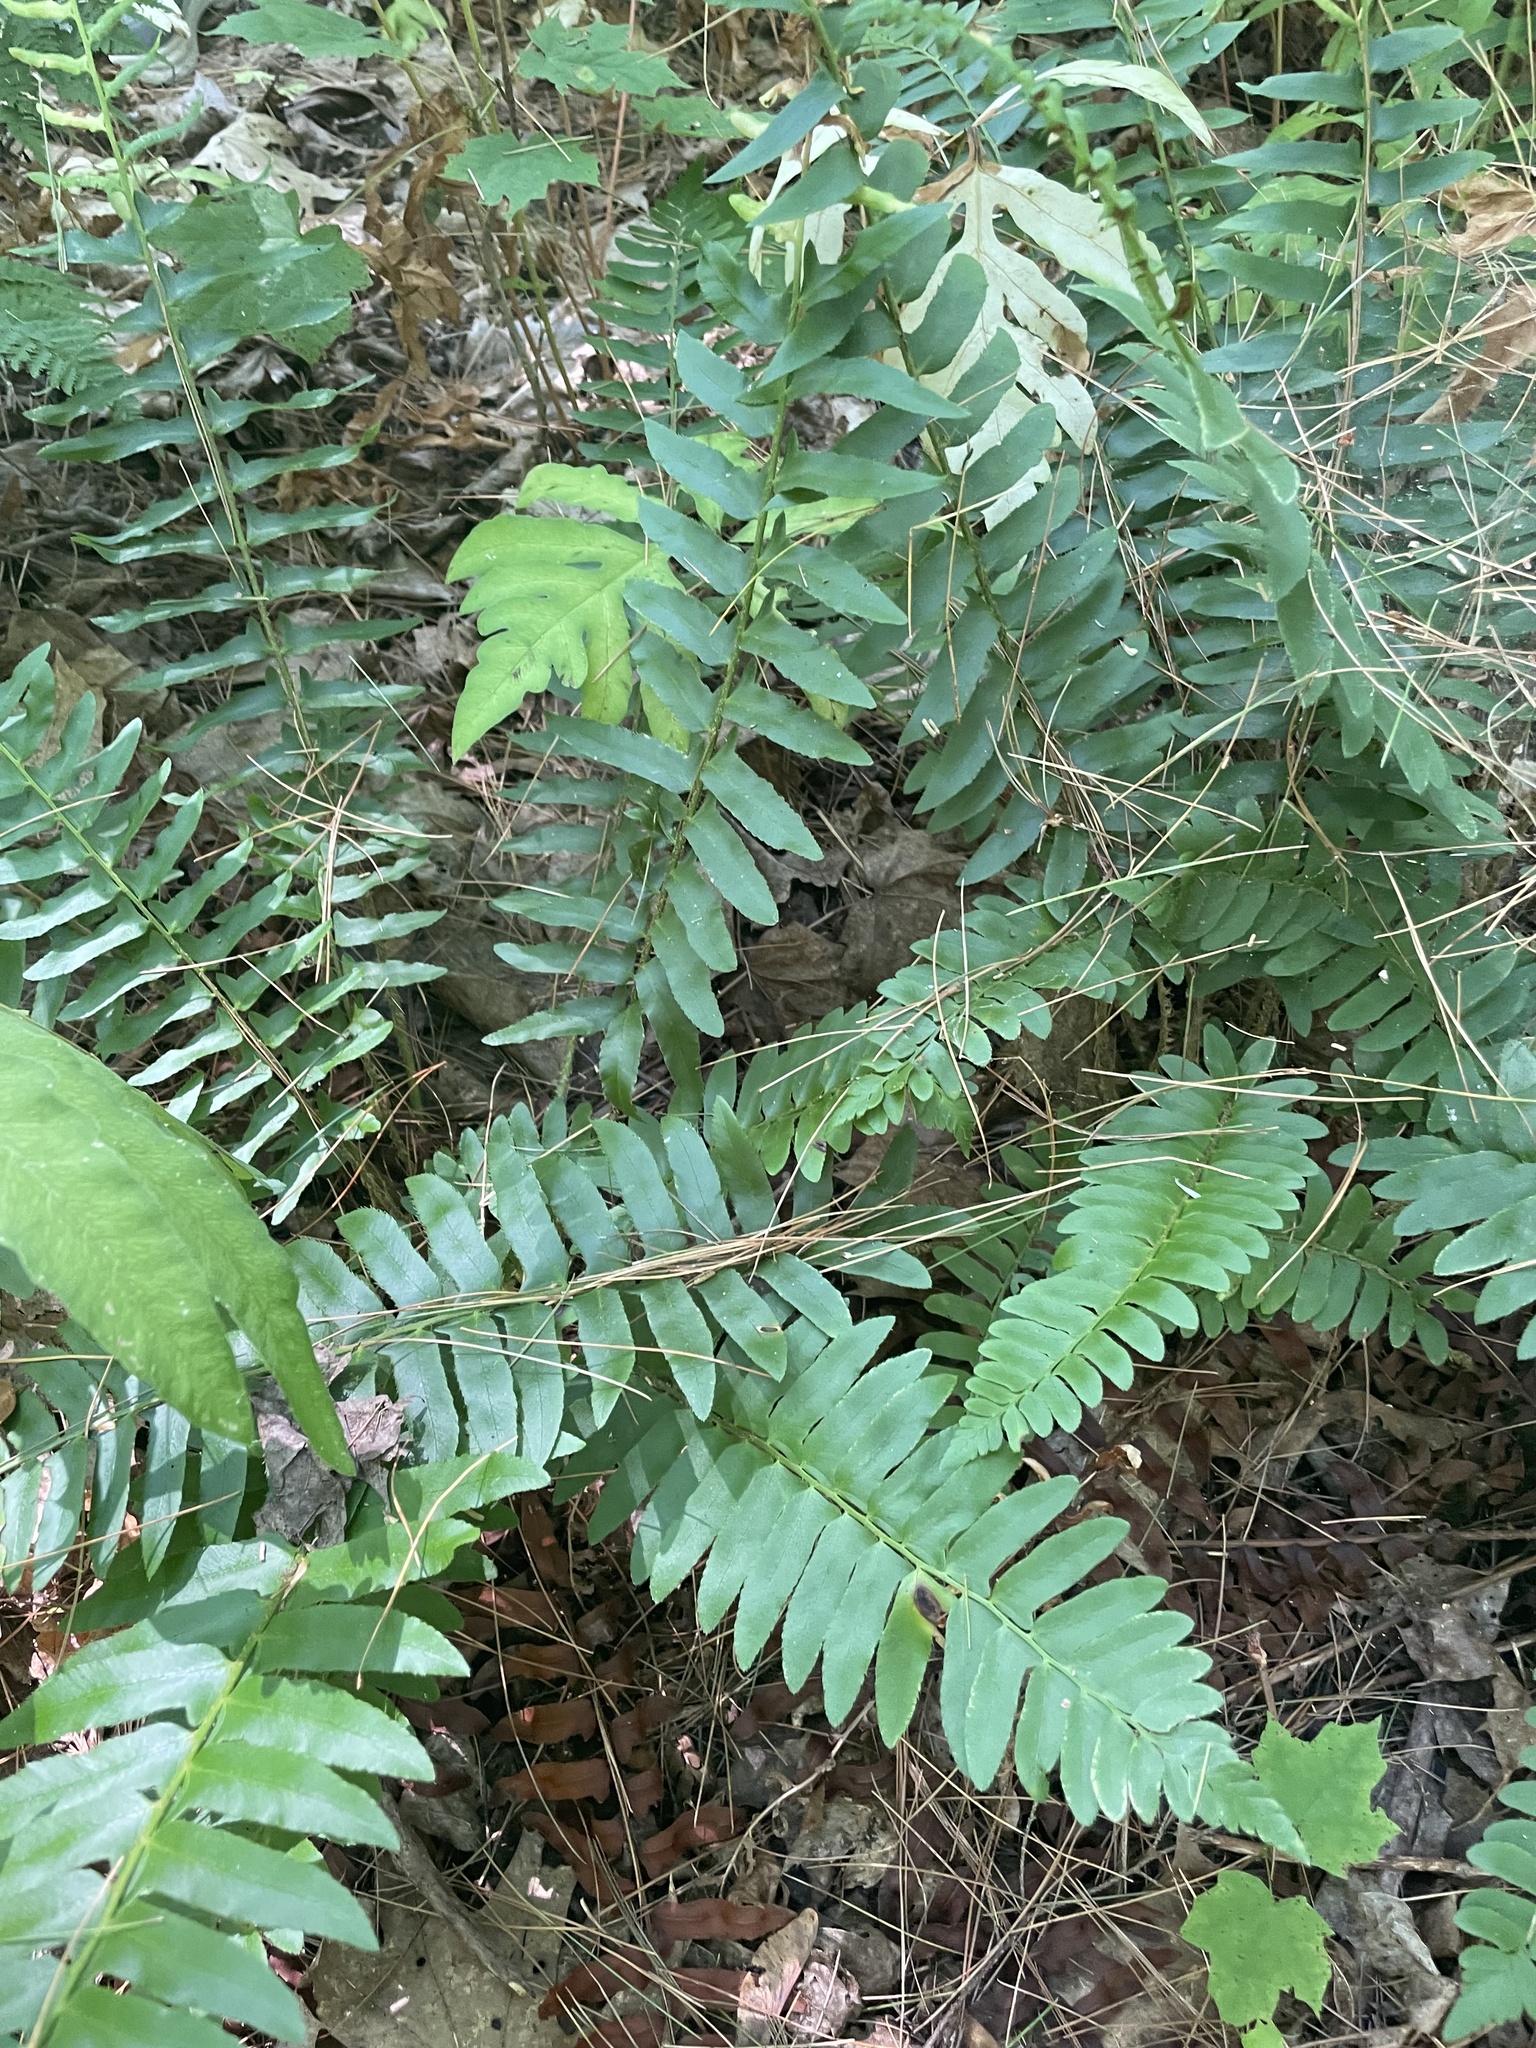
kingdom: Plantae
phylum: Tracheophyta
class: Polypodiopsida
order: Polypodiales
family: Dryopteridaceae
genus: Polystichum
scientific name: Polystichum acrostichoides
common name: Christmas fern
